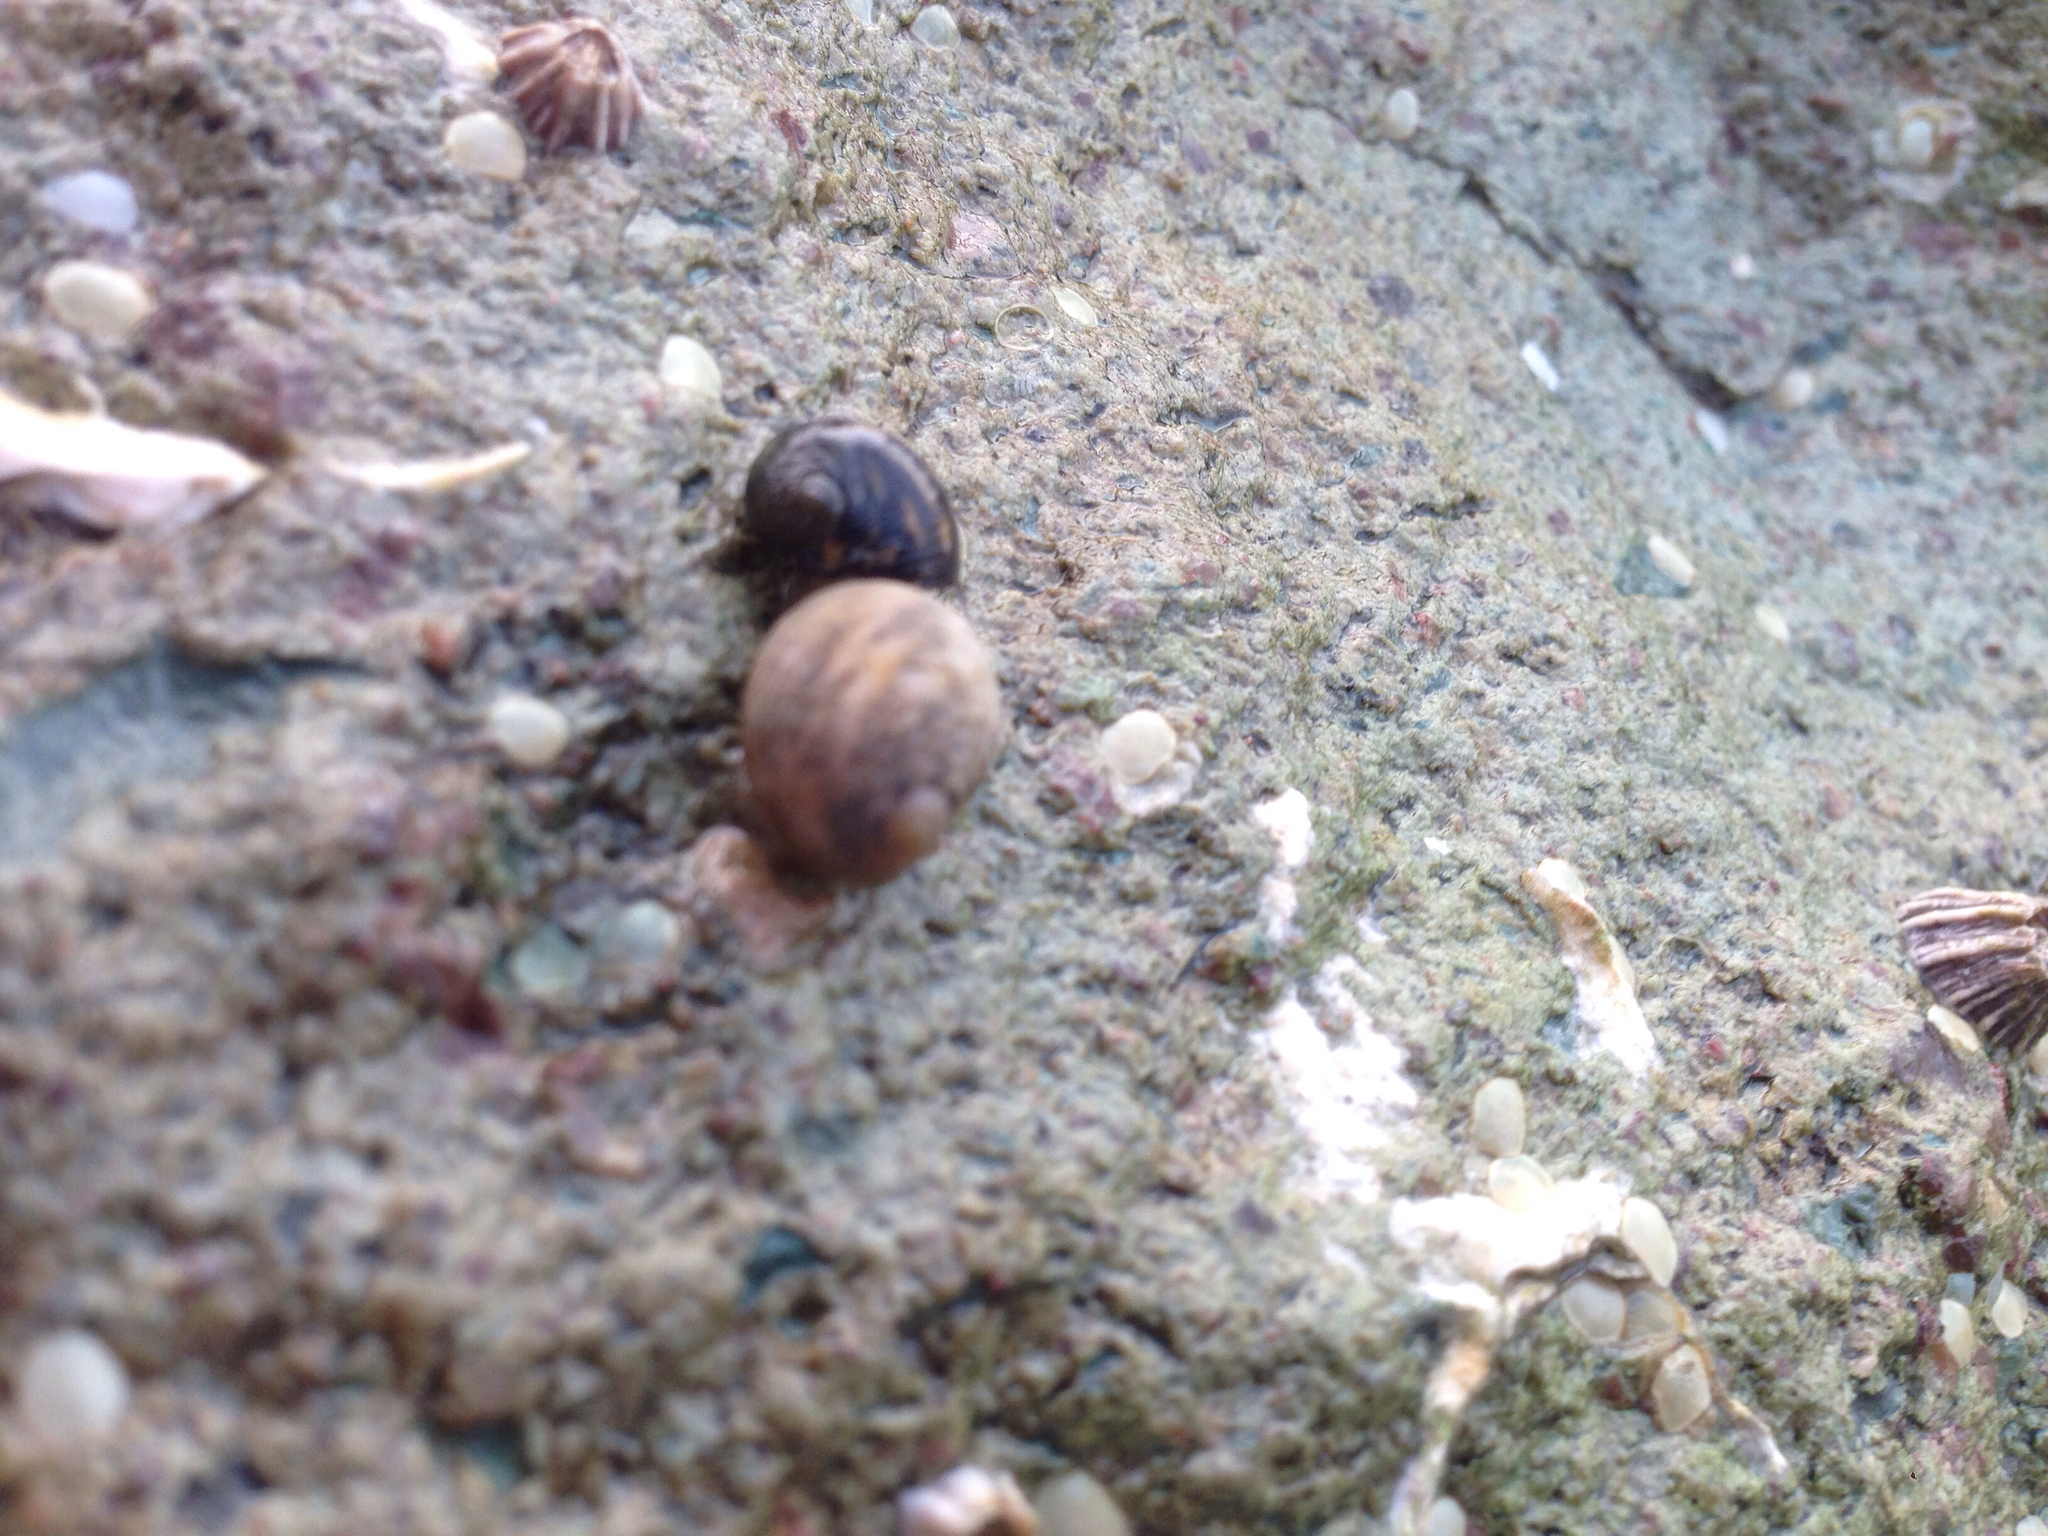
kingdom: Animalia
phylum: Mollusca
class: Gastropoda
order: Cycloneritida
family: Neritidae
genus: Nerita
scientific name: Nerita japonica
